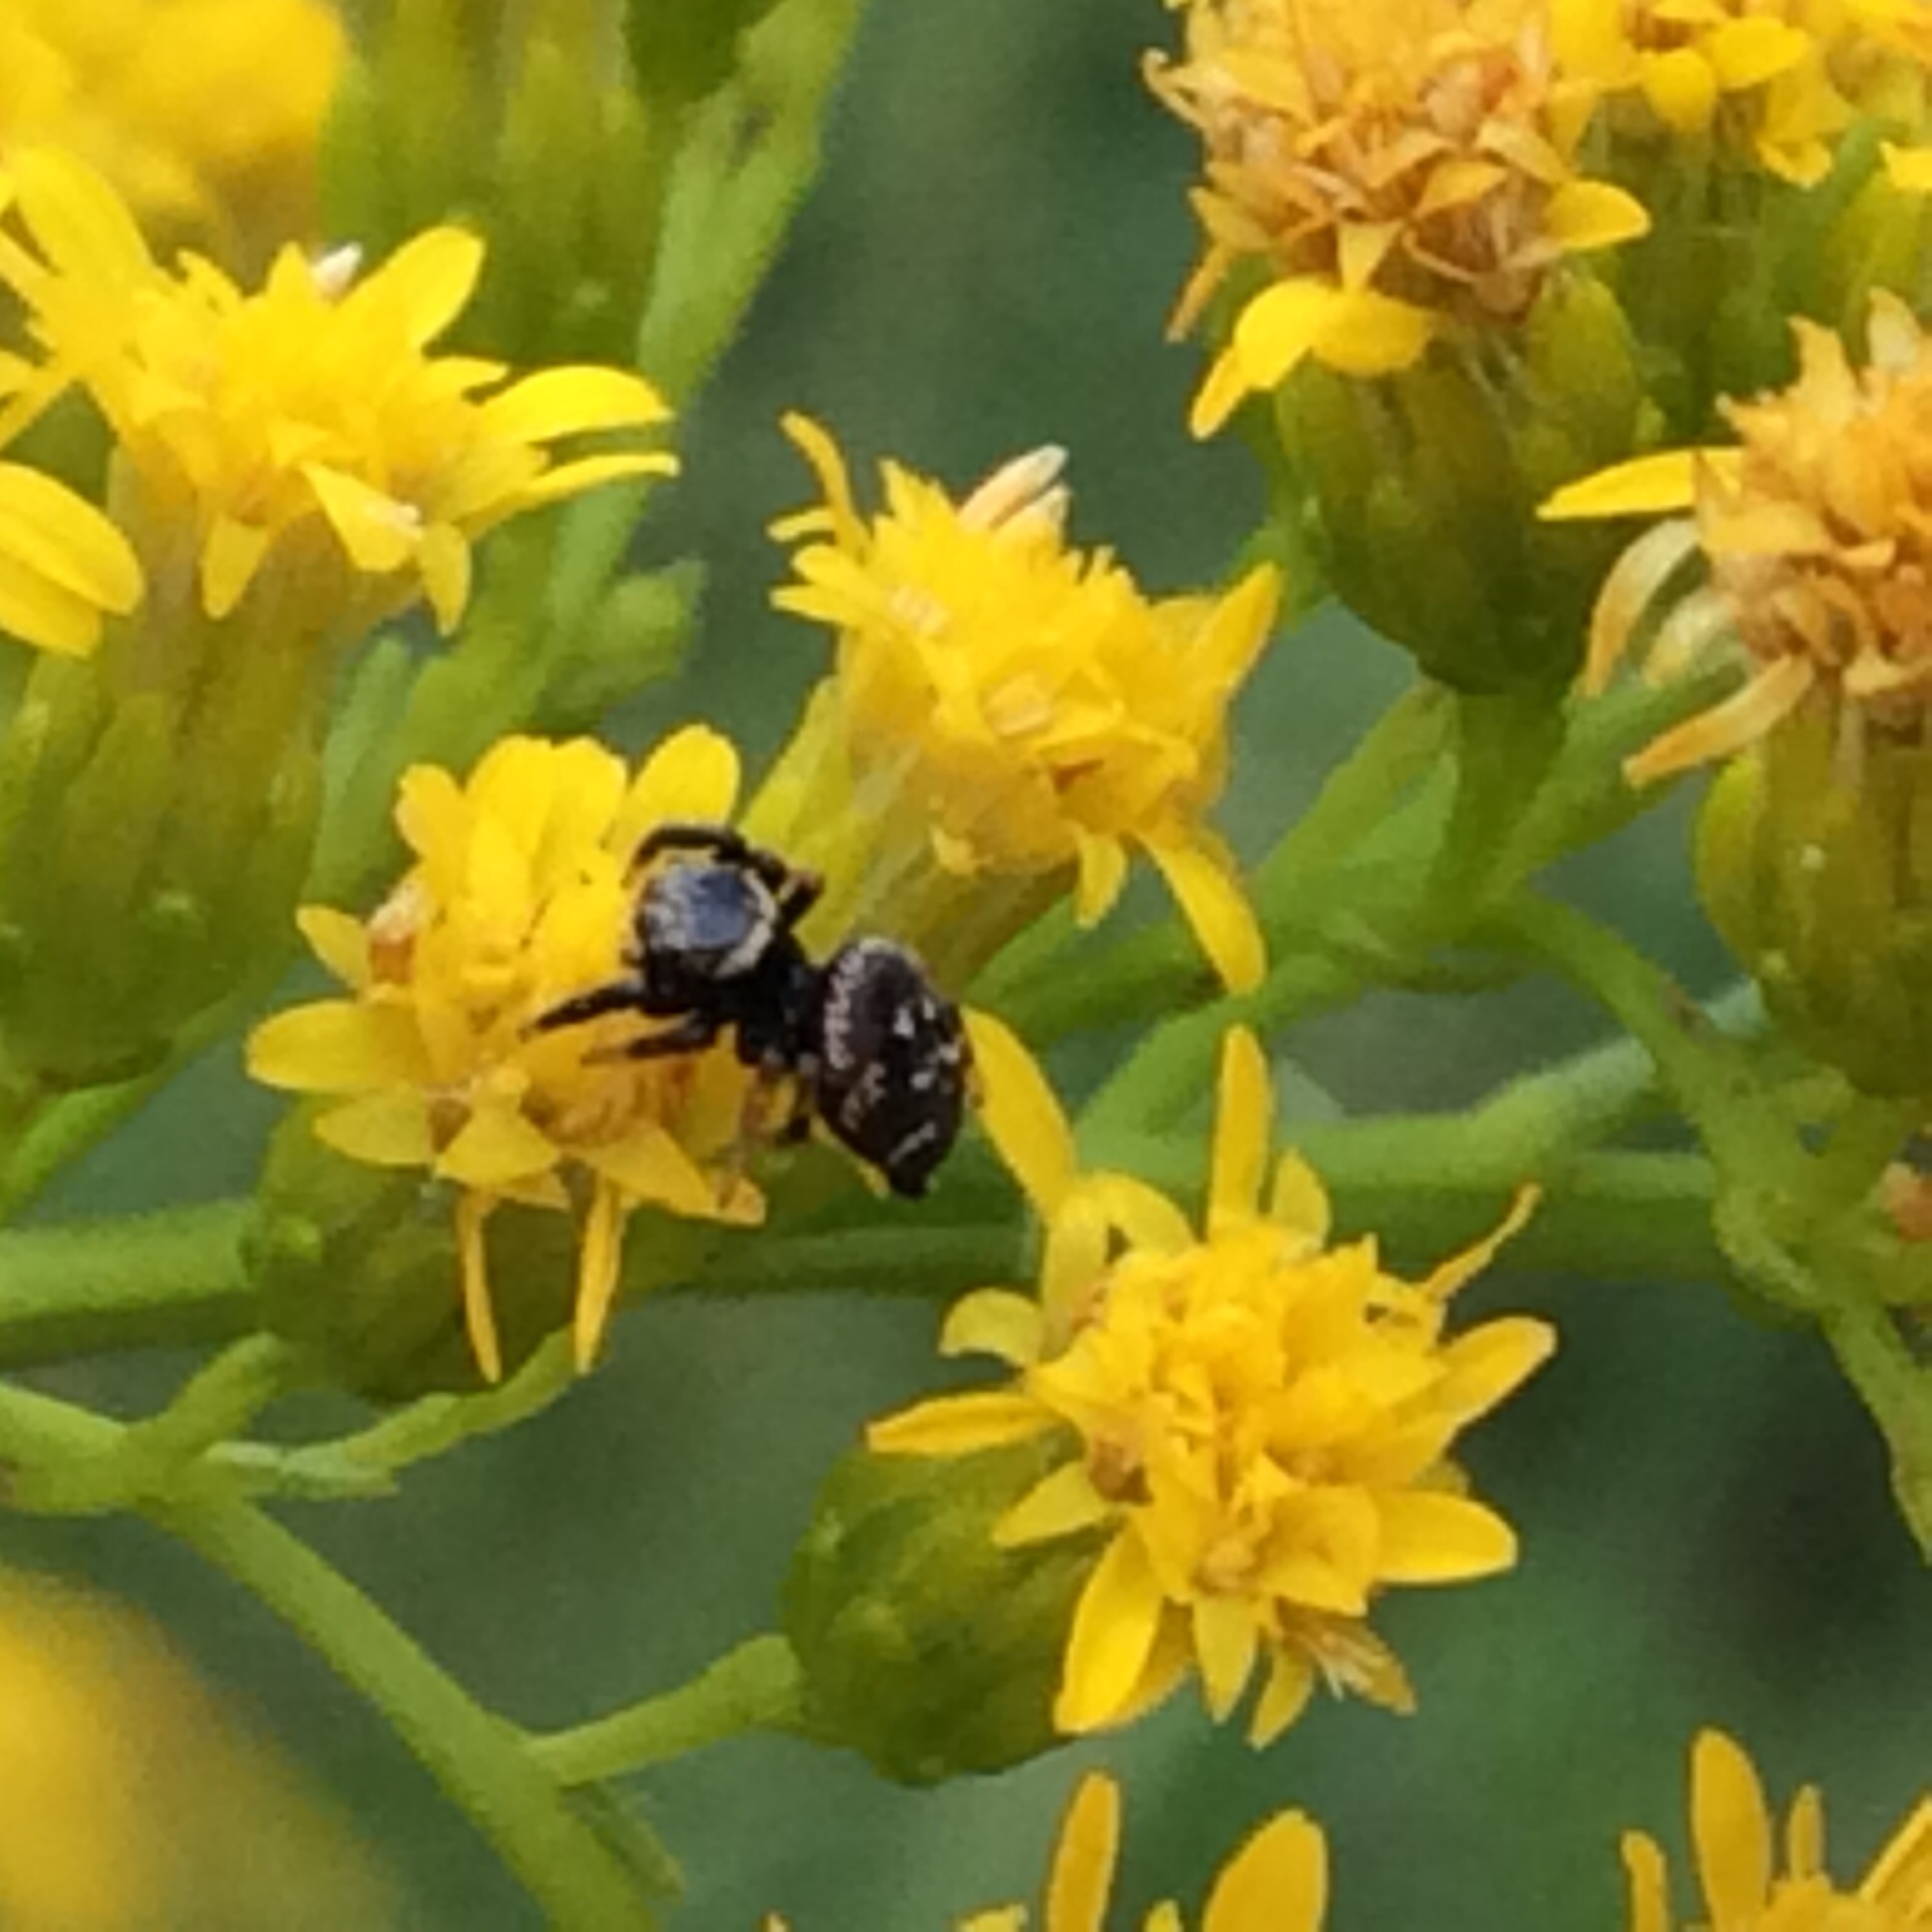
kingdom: Animalia
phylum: Arthropoda
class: Arachnida
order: Araneae
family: Salticidae
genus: Paraphidippus
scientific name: Paraphidippus aurantius
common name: Jumping spiders
